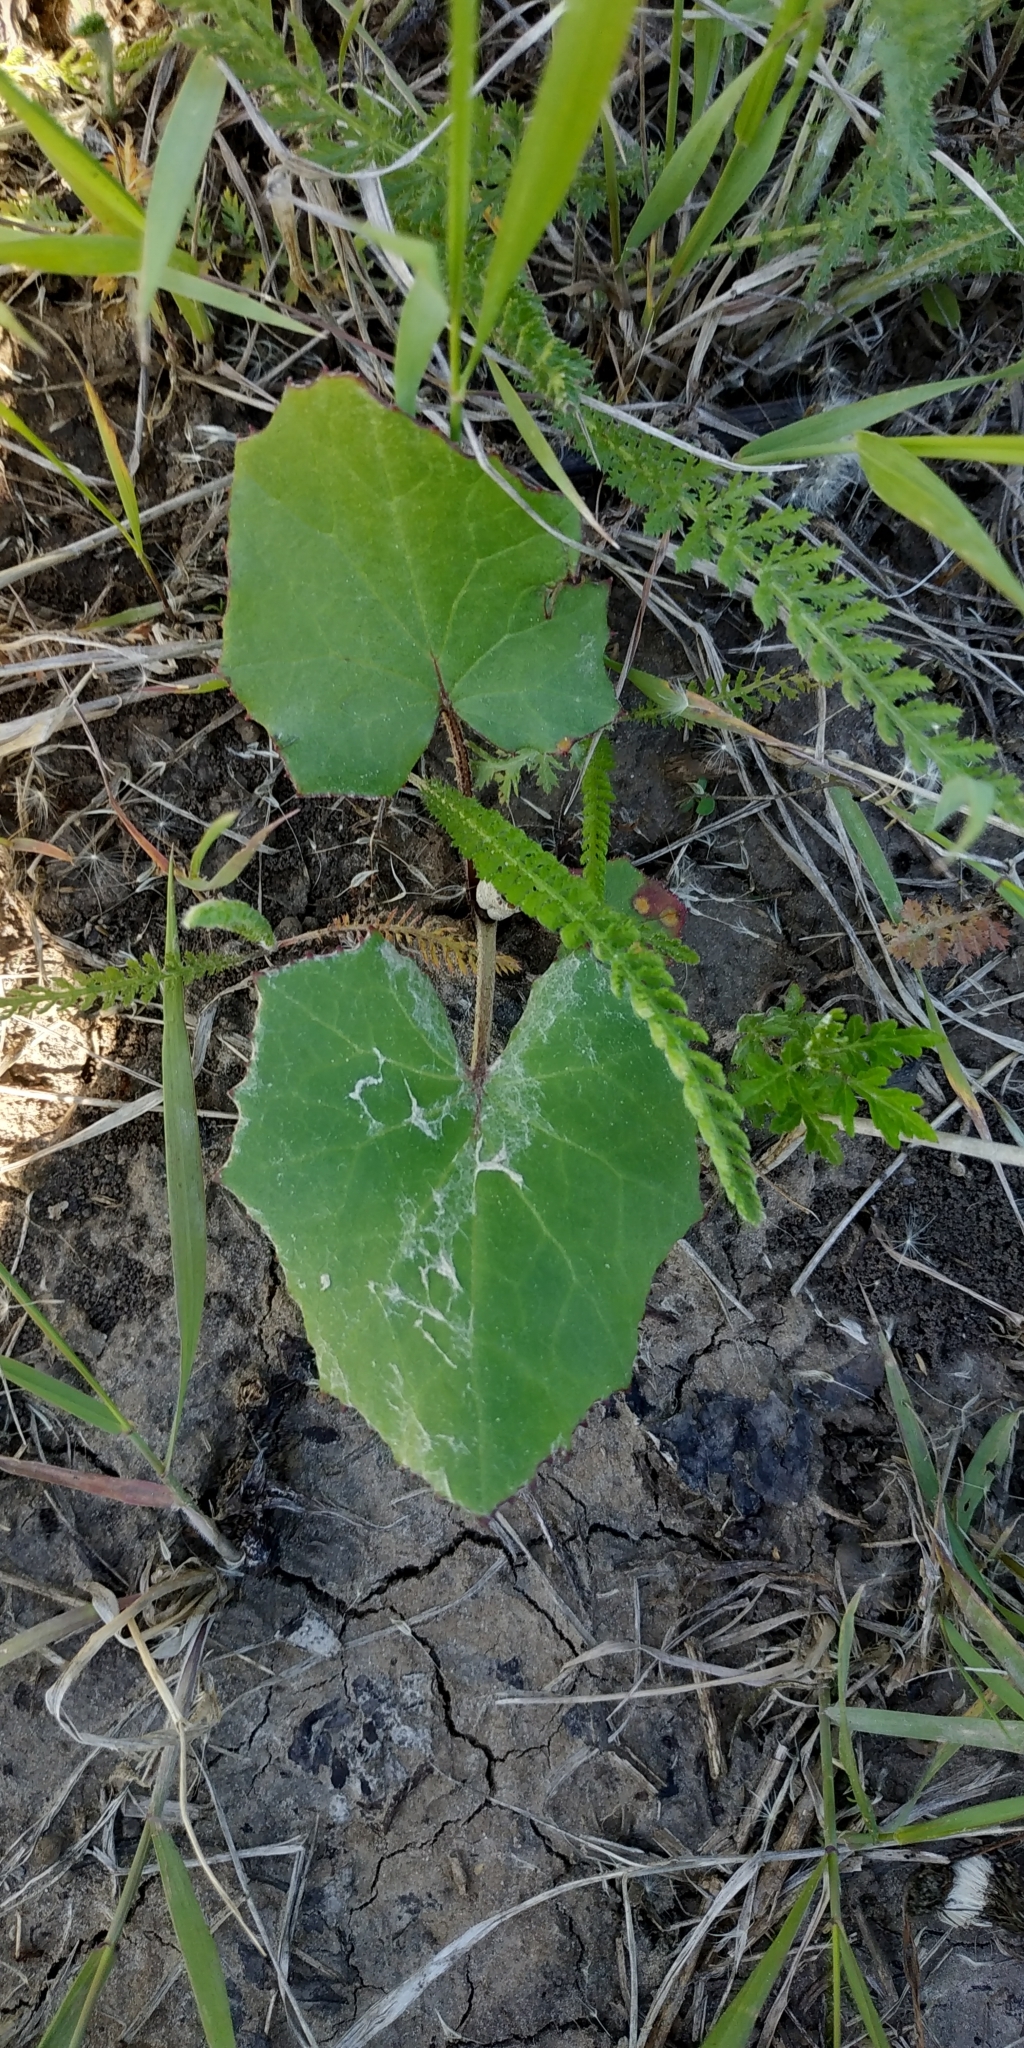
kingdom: Plantae
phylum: Tracheophyta
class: Magnoliopsida
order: Asterales
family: Asteraceae
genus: Tussilago
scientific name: Tussilago farfara
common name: Coltsfoot
